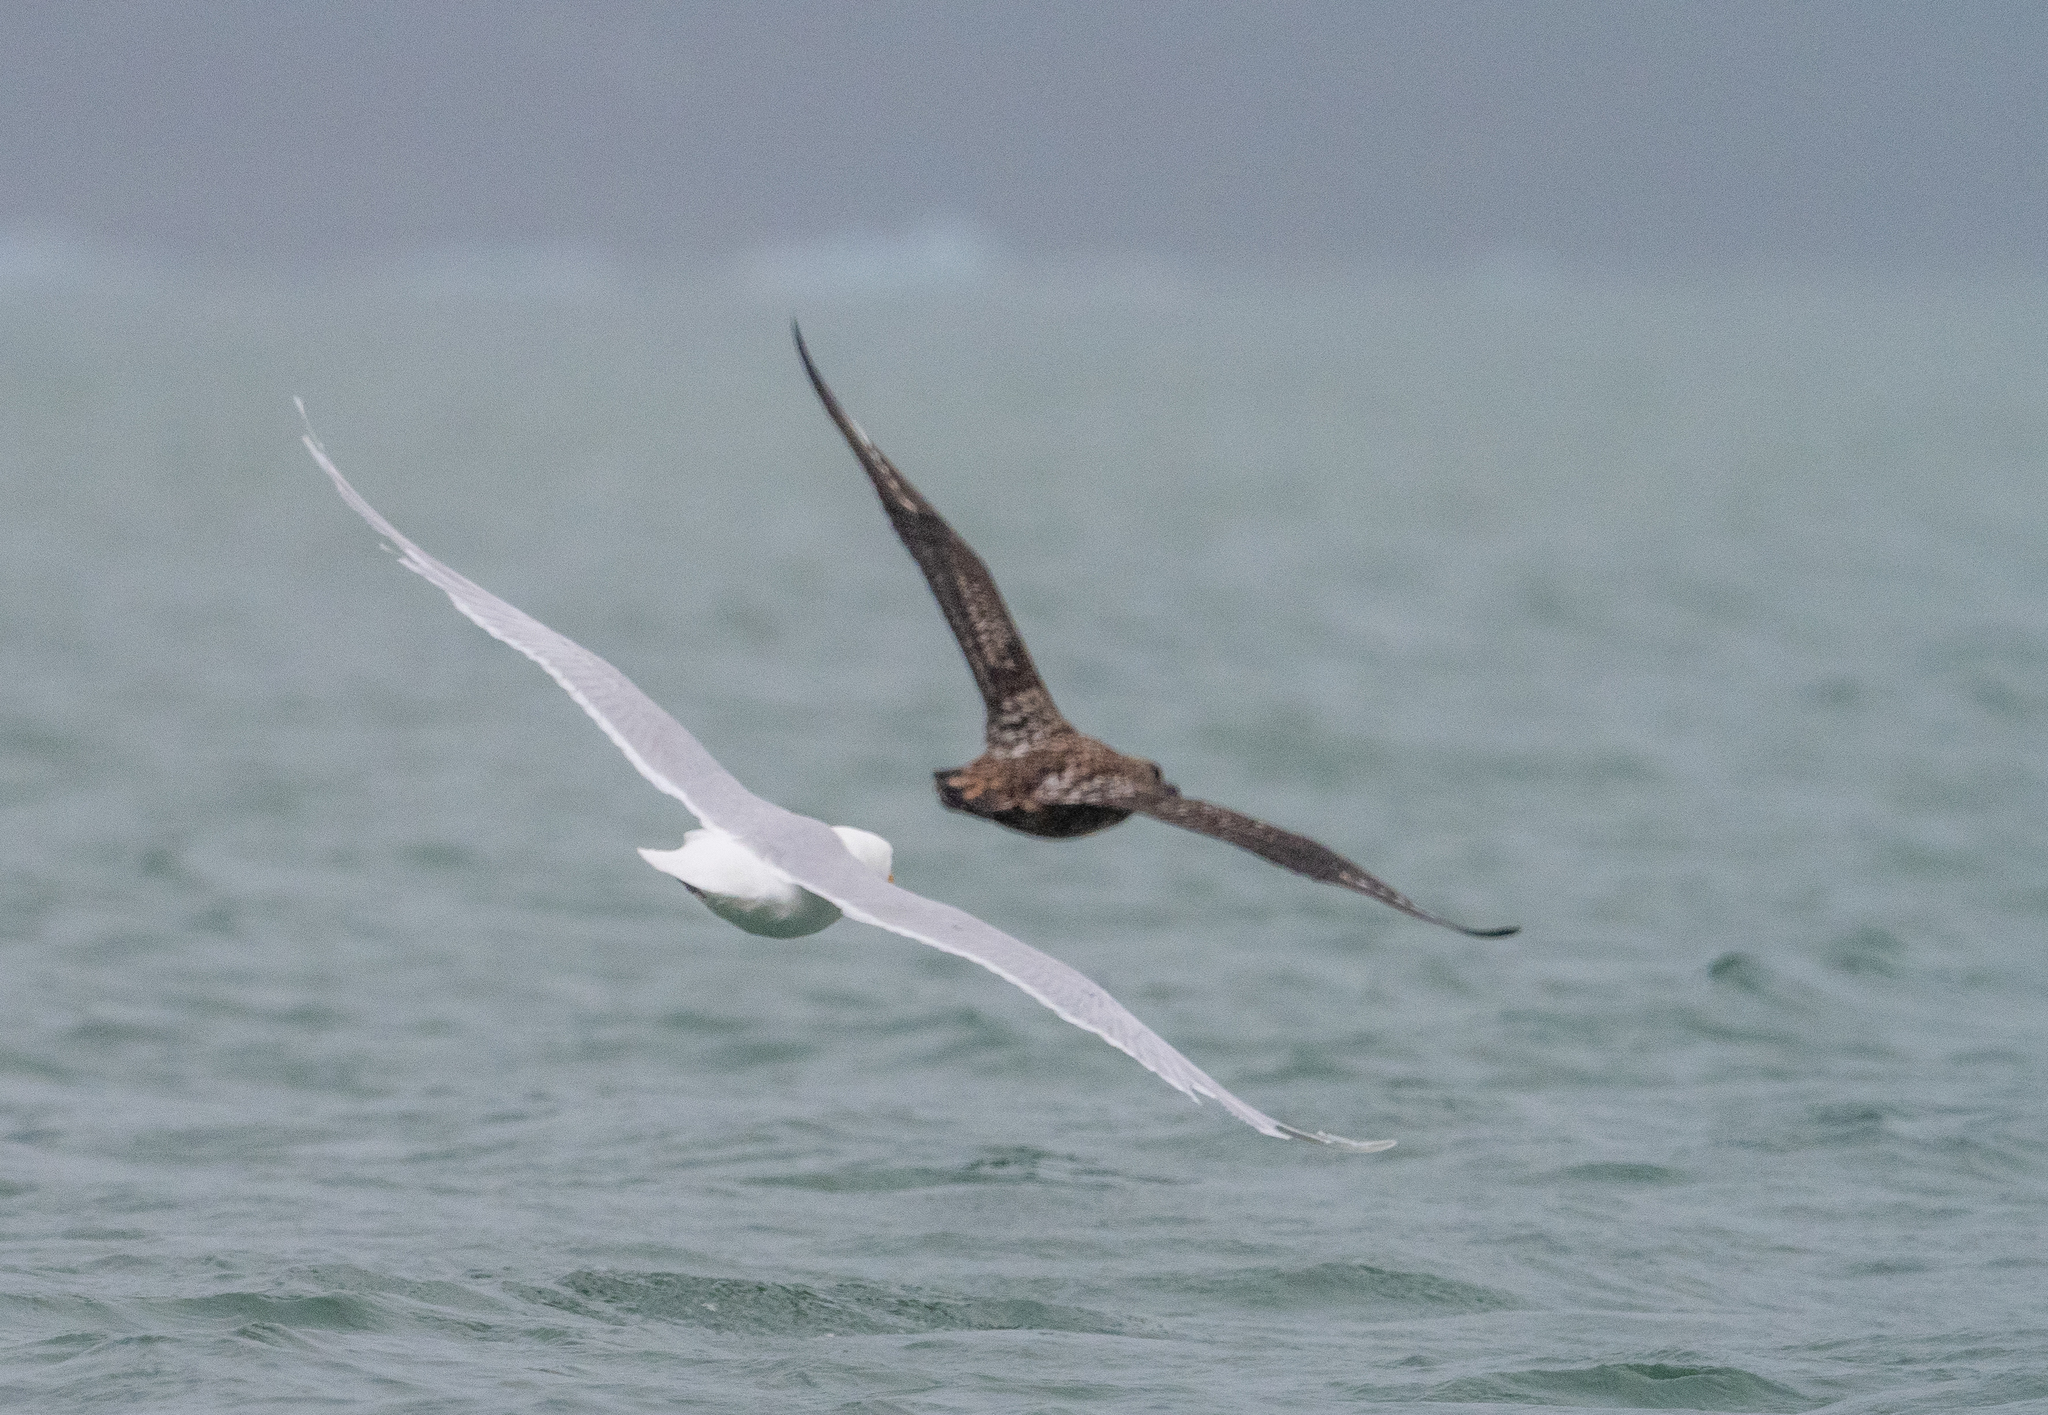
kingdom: Animalia
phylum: Chordata
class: Aves
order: Charadriiformes
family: Stercorariidae
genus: Stercorarius
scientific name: Stercorarius skua
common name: Great skua
